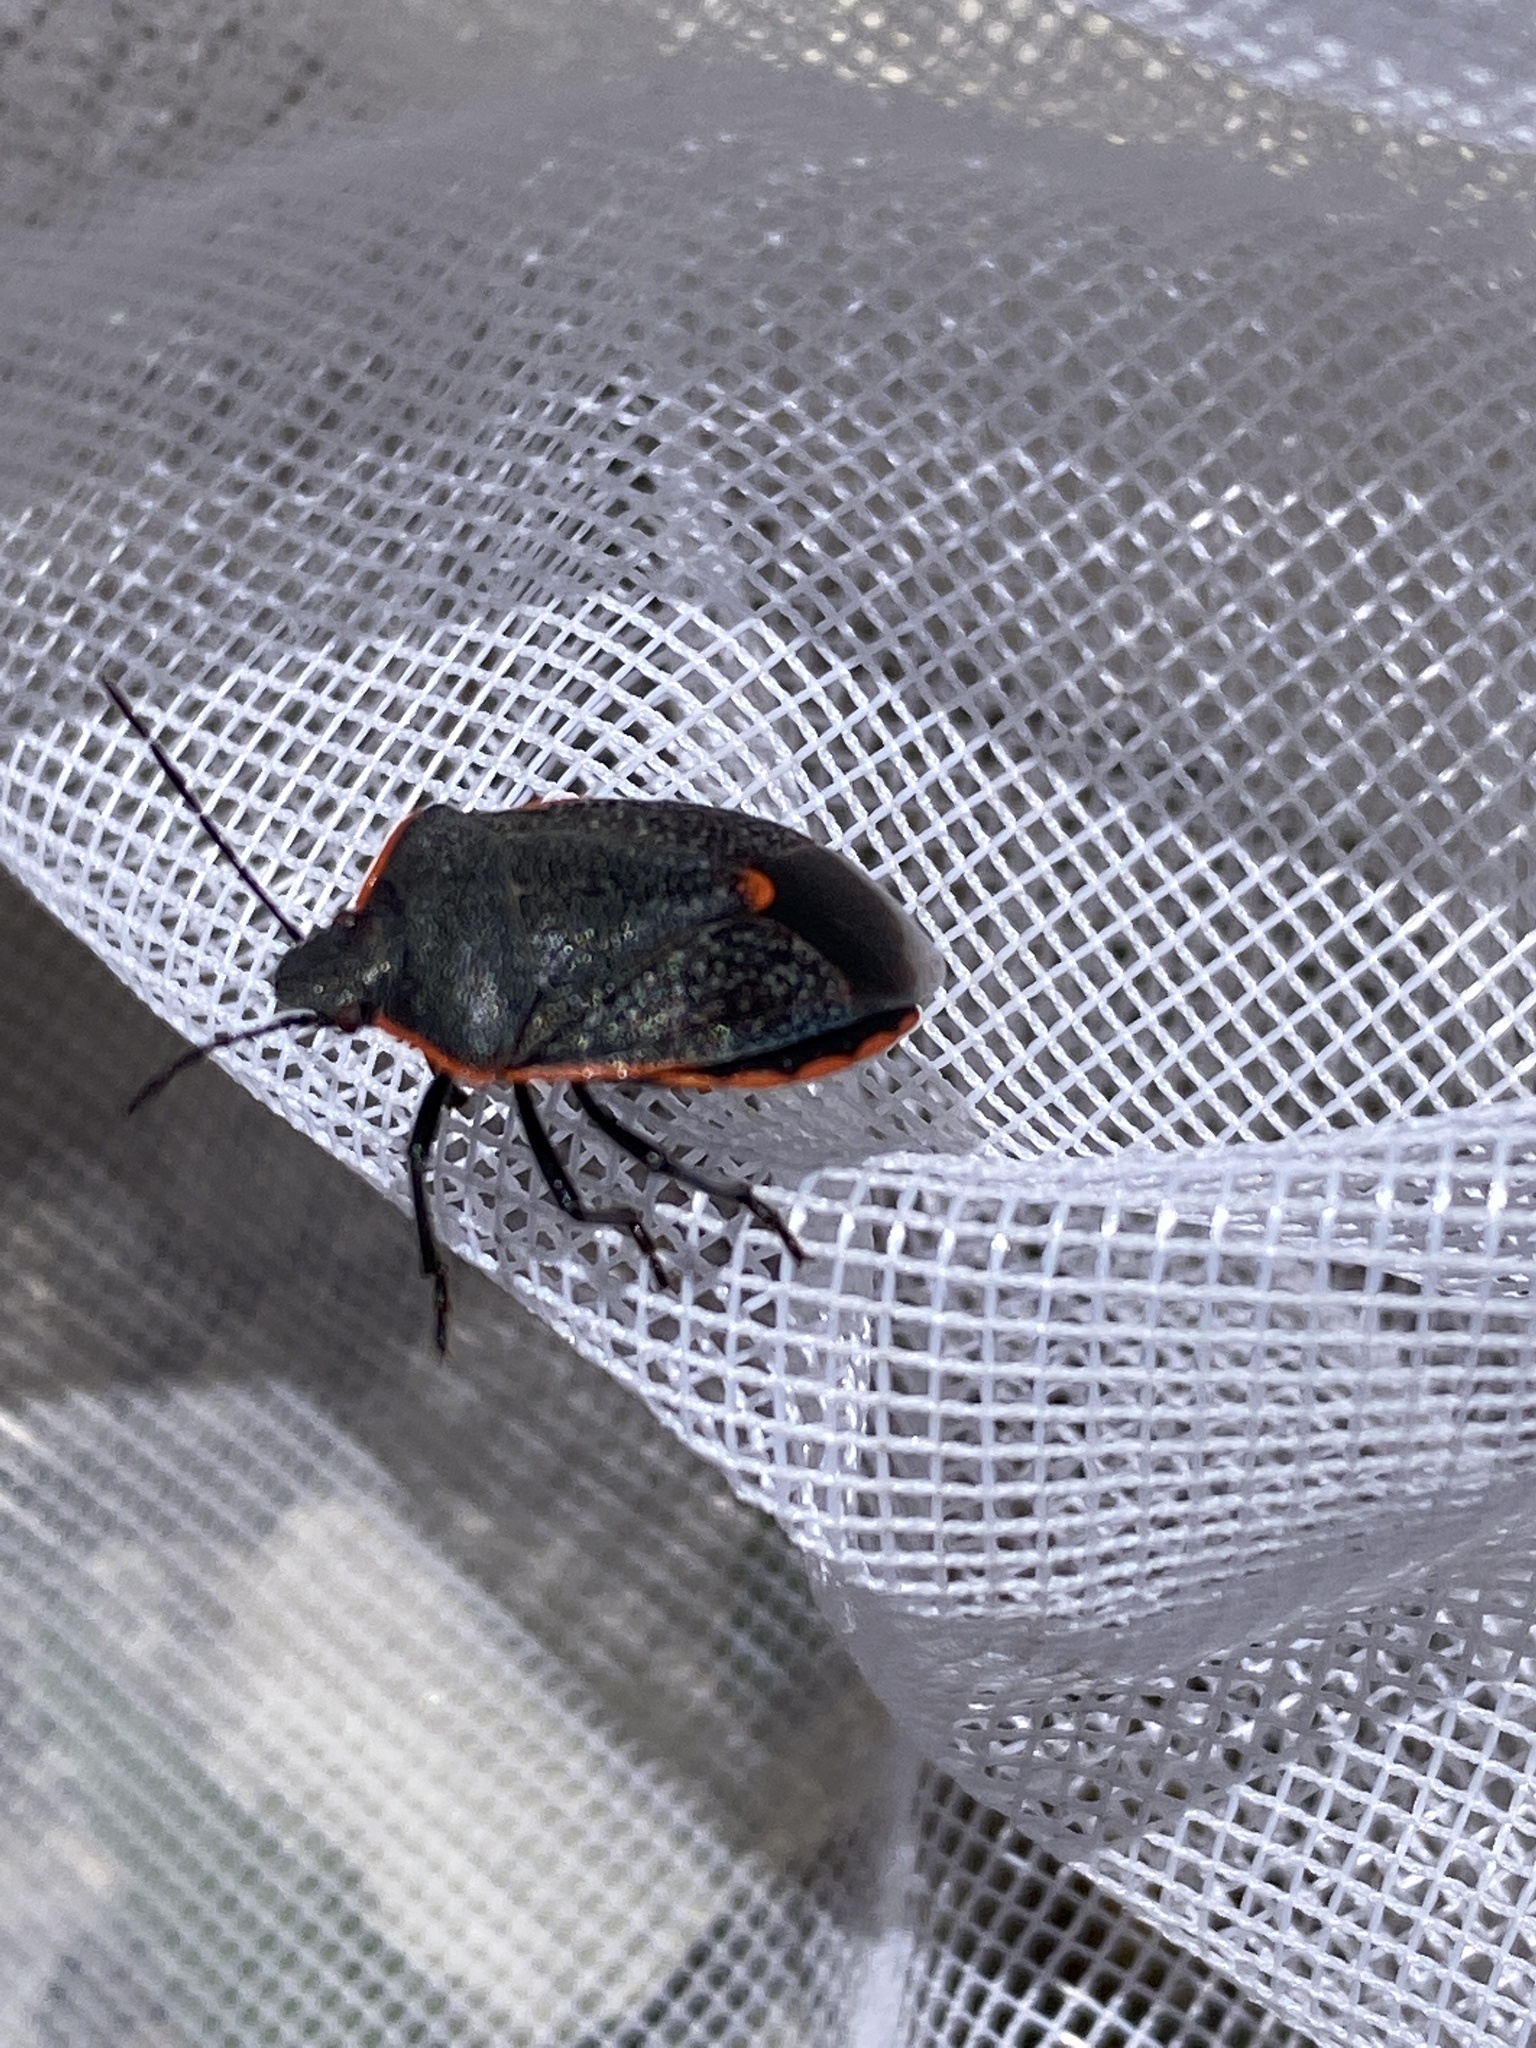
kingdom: Animalia
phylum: Arthropoda
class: Insecta
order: Hemiptera
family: Pentatomidae
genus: Chlorochroa
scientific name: Chlorochroa ligata
